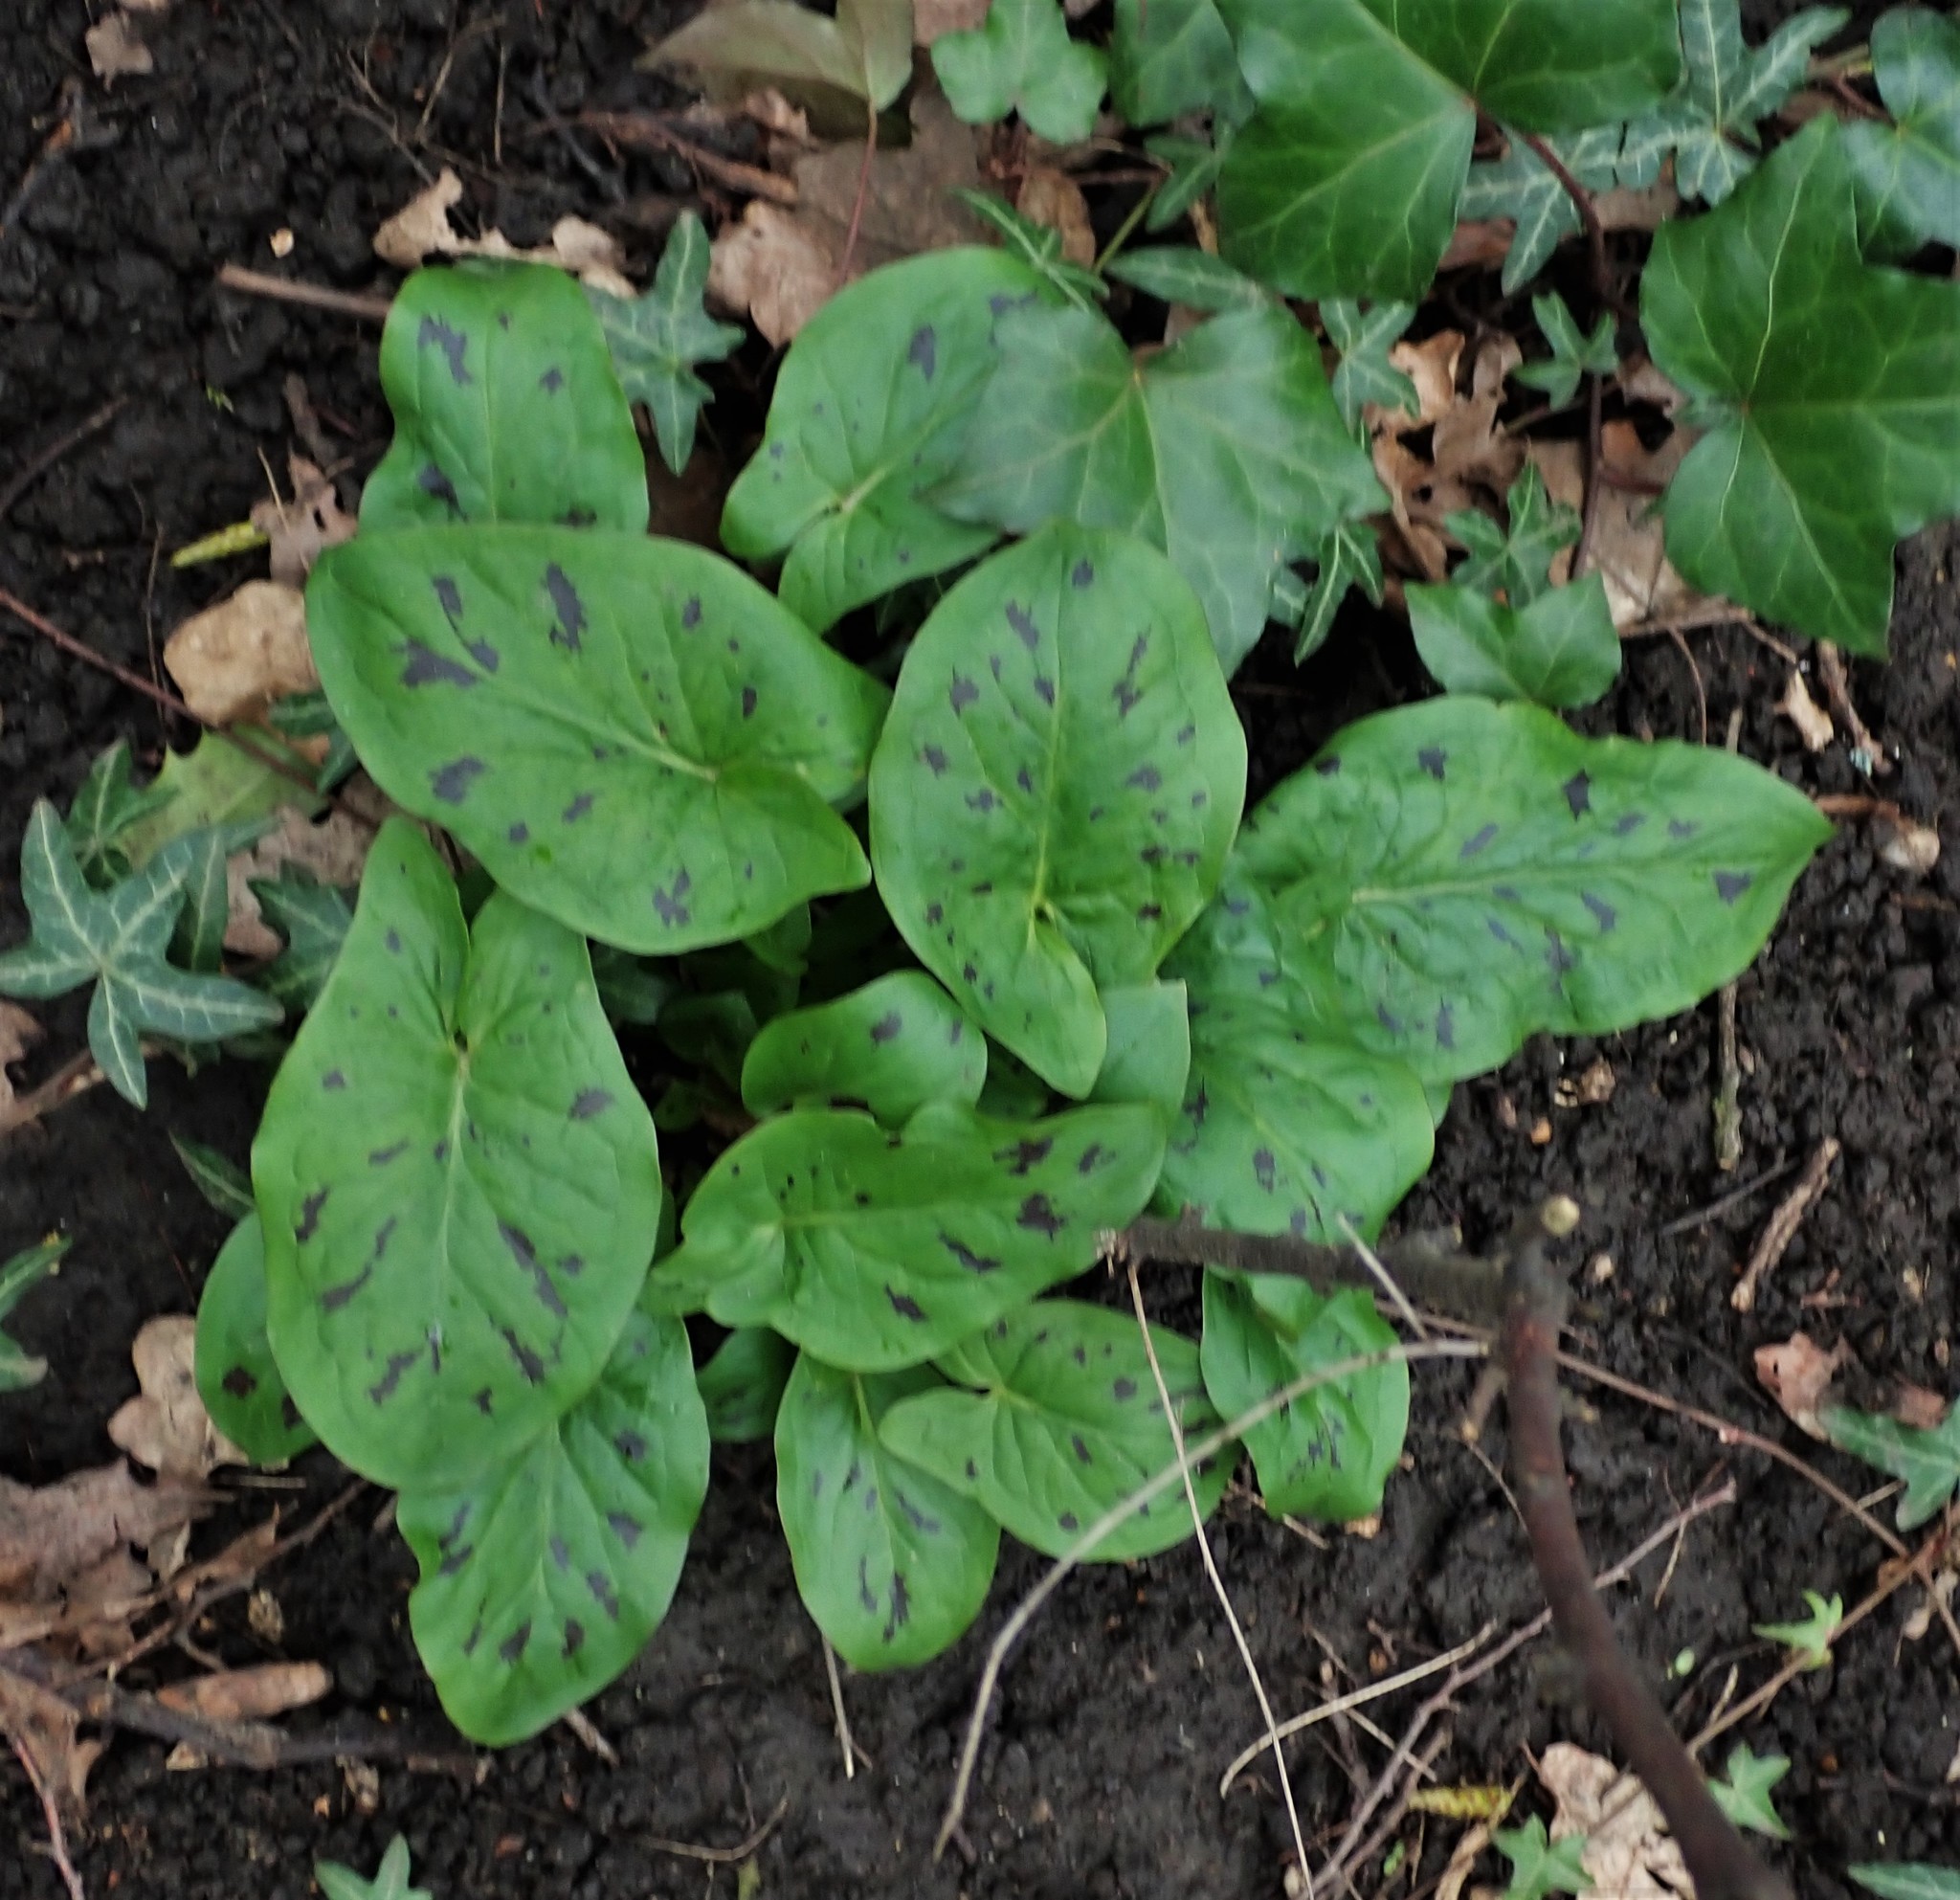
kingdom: Plantae
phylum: Tracheophyta
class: Liliopsida
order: Alismatales
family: Araceae
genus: Arum
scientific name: Arum maculatum
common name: Lords-and-ladies
